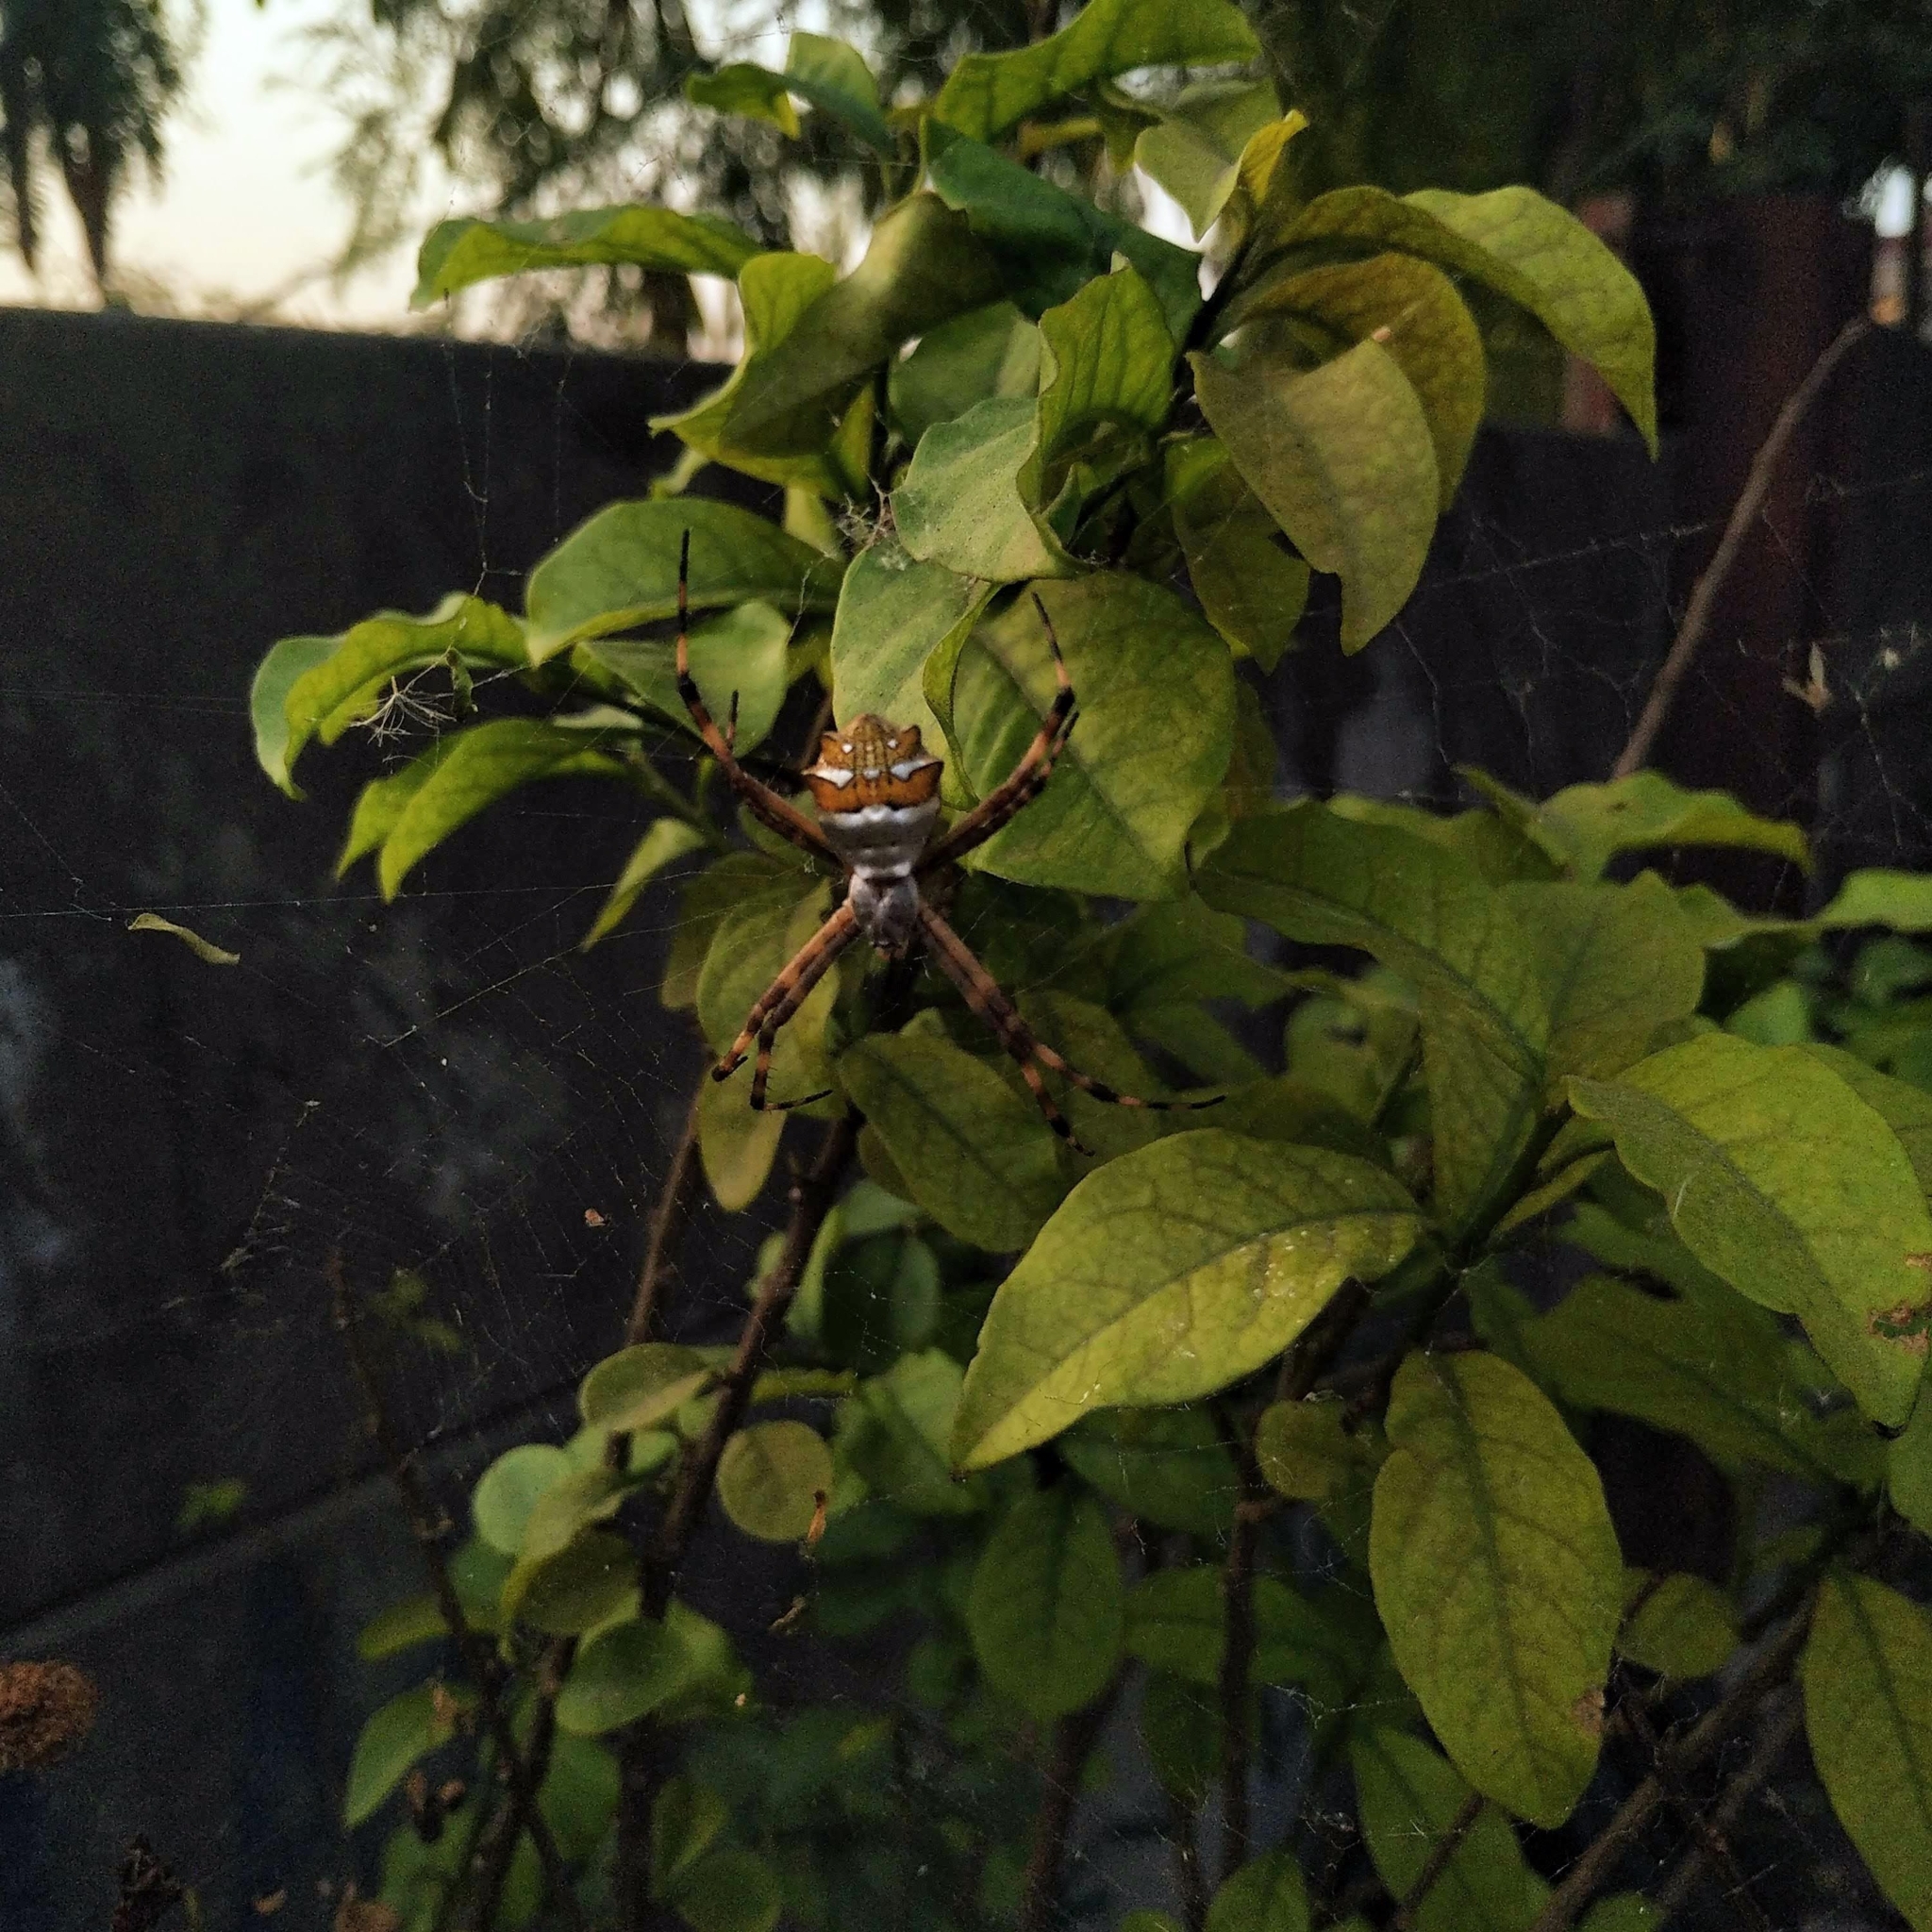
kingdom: Animalia
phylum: Arthropoda
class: Arachnida
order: Araneae
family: Araneidae
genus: Argiope
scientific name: Argiope argentata
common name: Orb weavers
